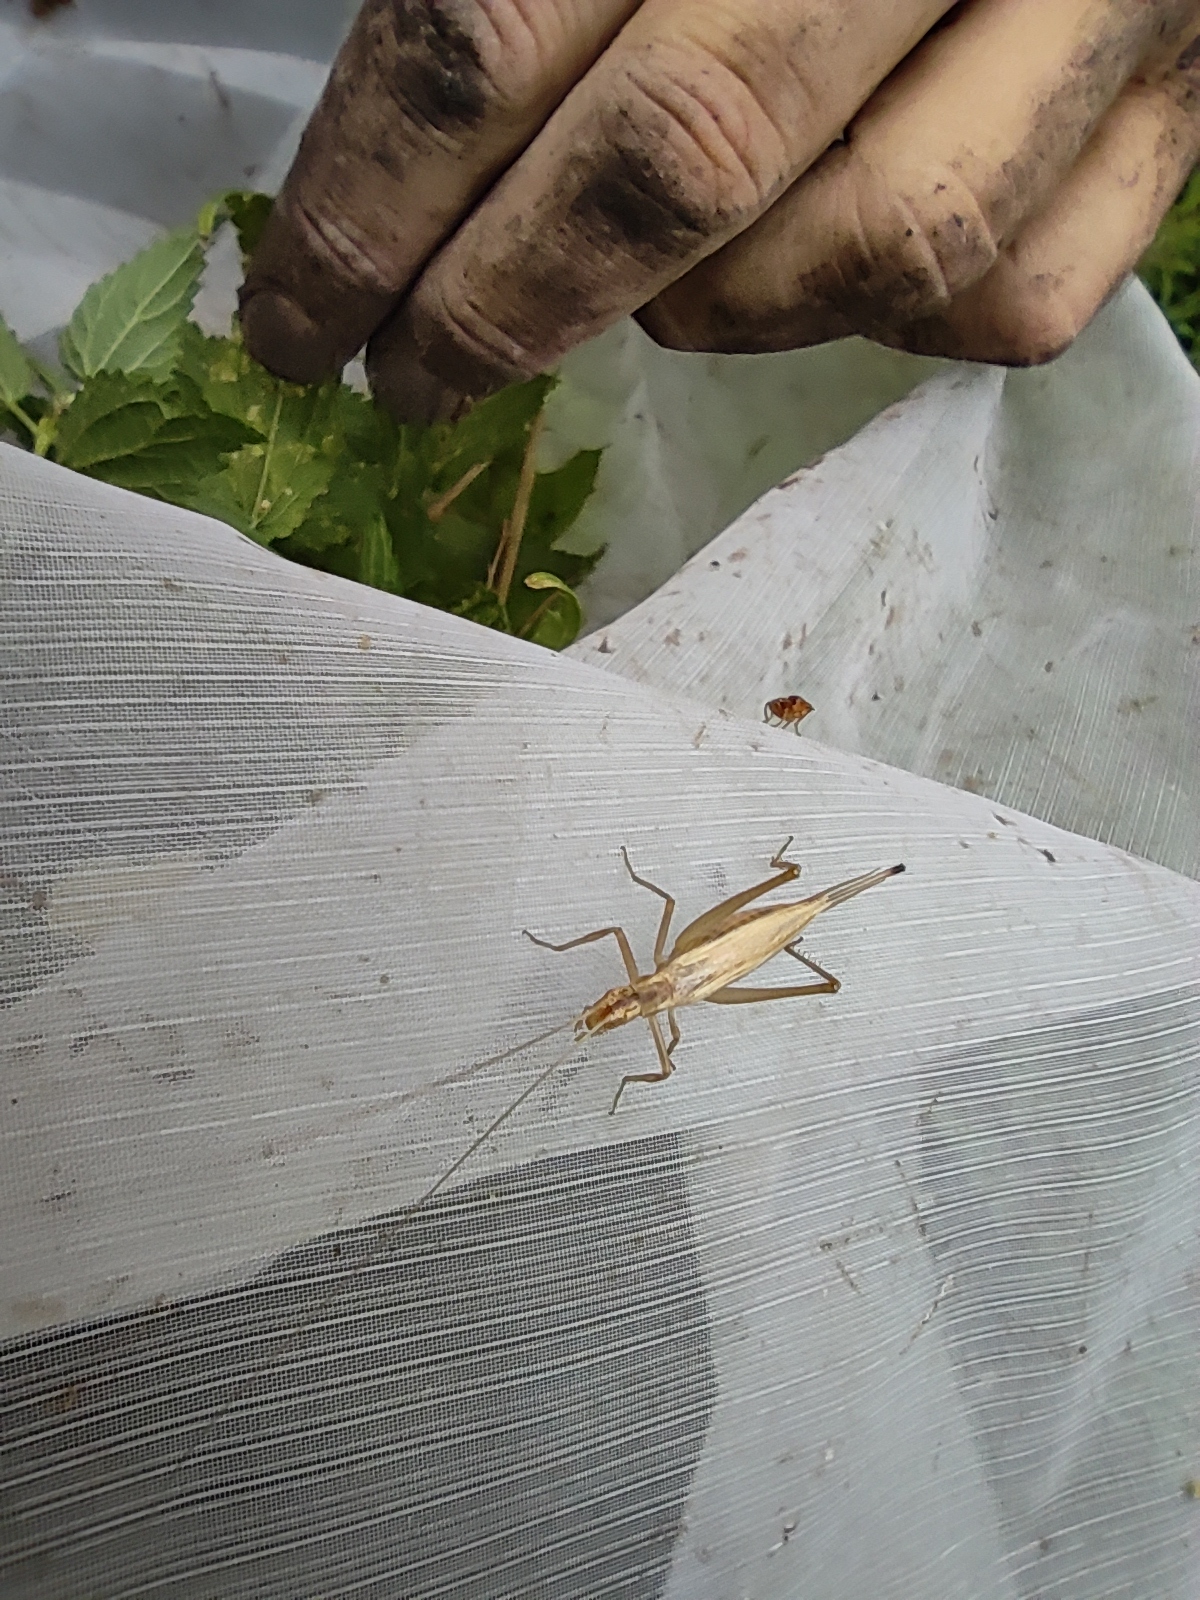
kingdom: Animalia
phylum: Arthropoda
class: Insecta
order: Orthoptera
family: Gryllidae
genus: Oecanthus
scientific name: Oecanthus pellucens
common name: Tree-cricket
